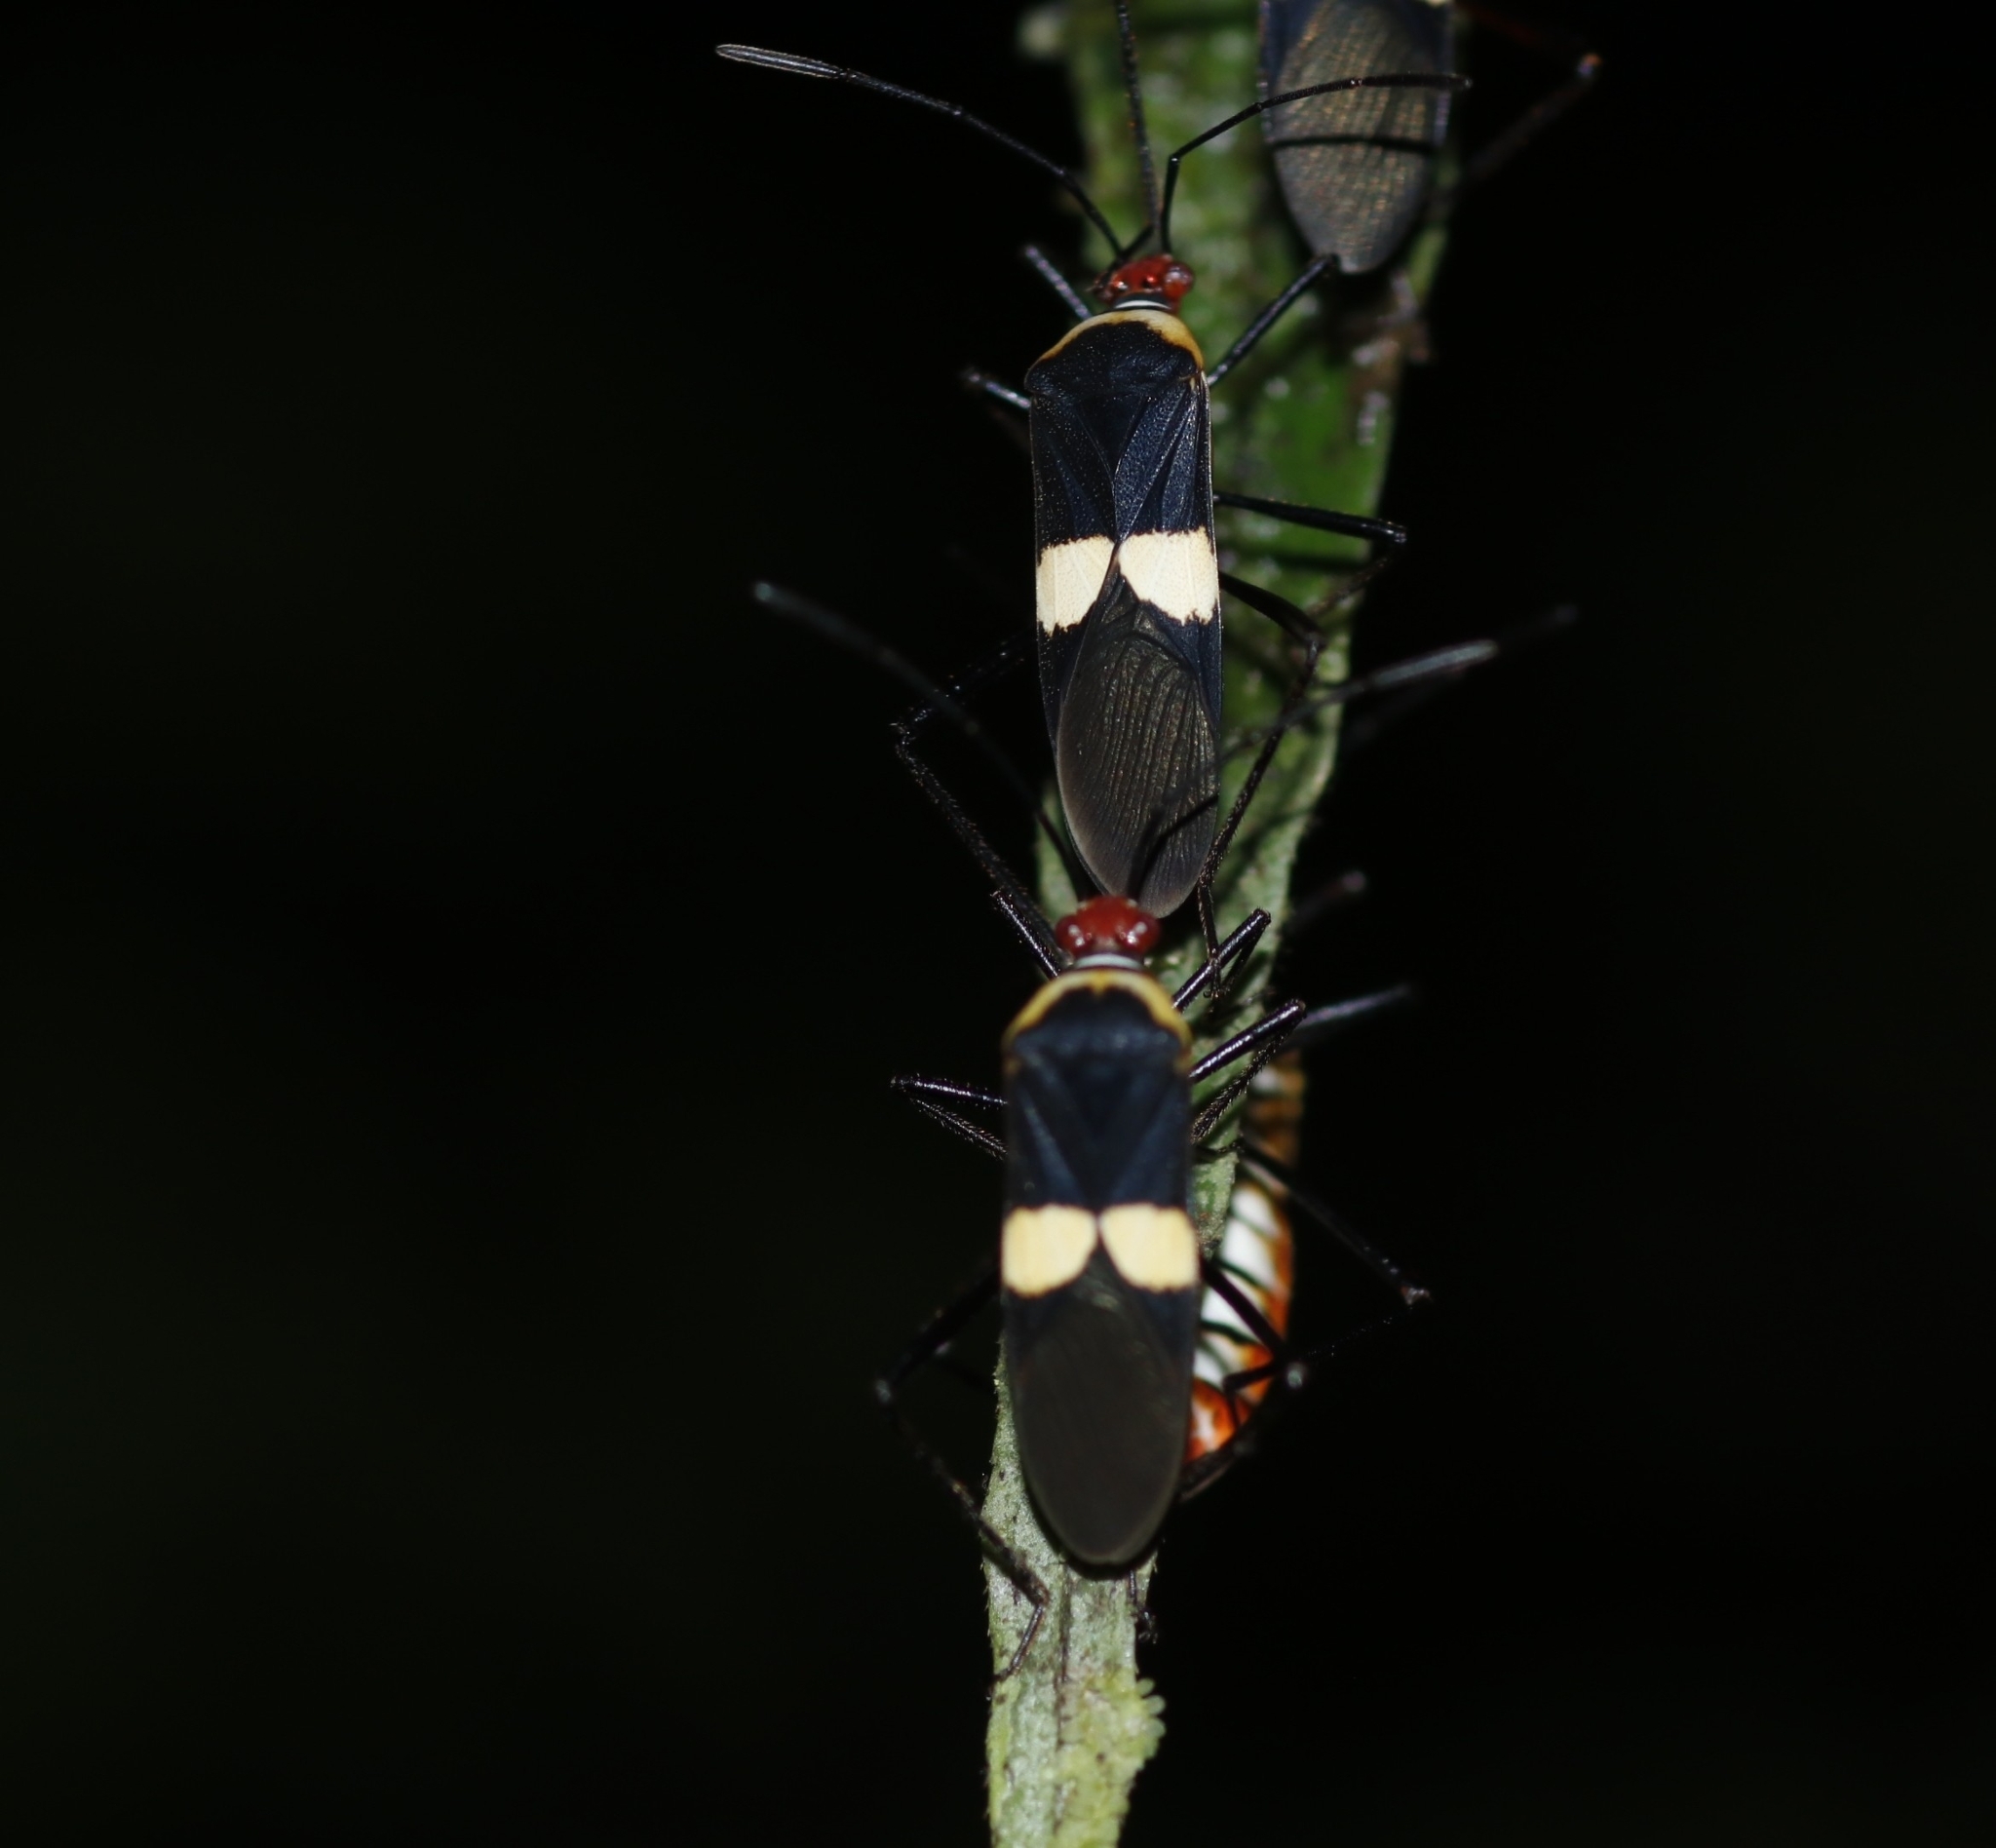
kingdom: Animalia
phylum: Arthropoda
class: Insecta
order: Hemiptera
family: Coreidae
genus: Hypselonotus
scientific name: Hypselonotus interruptus
